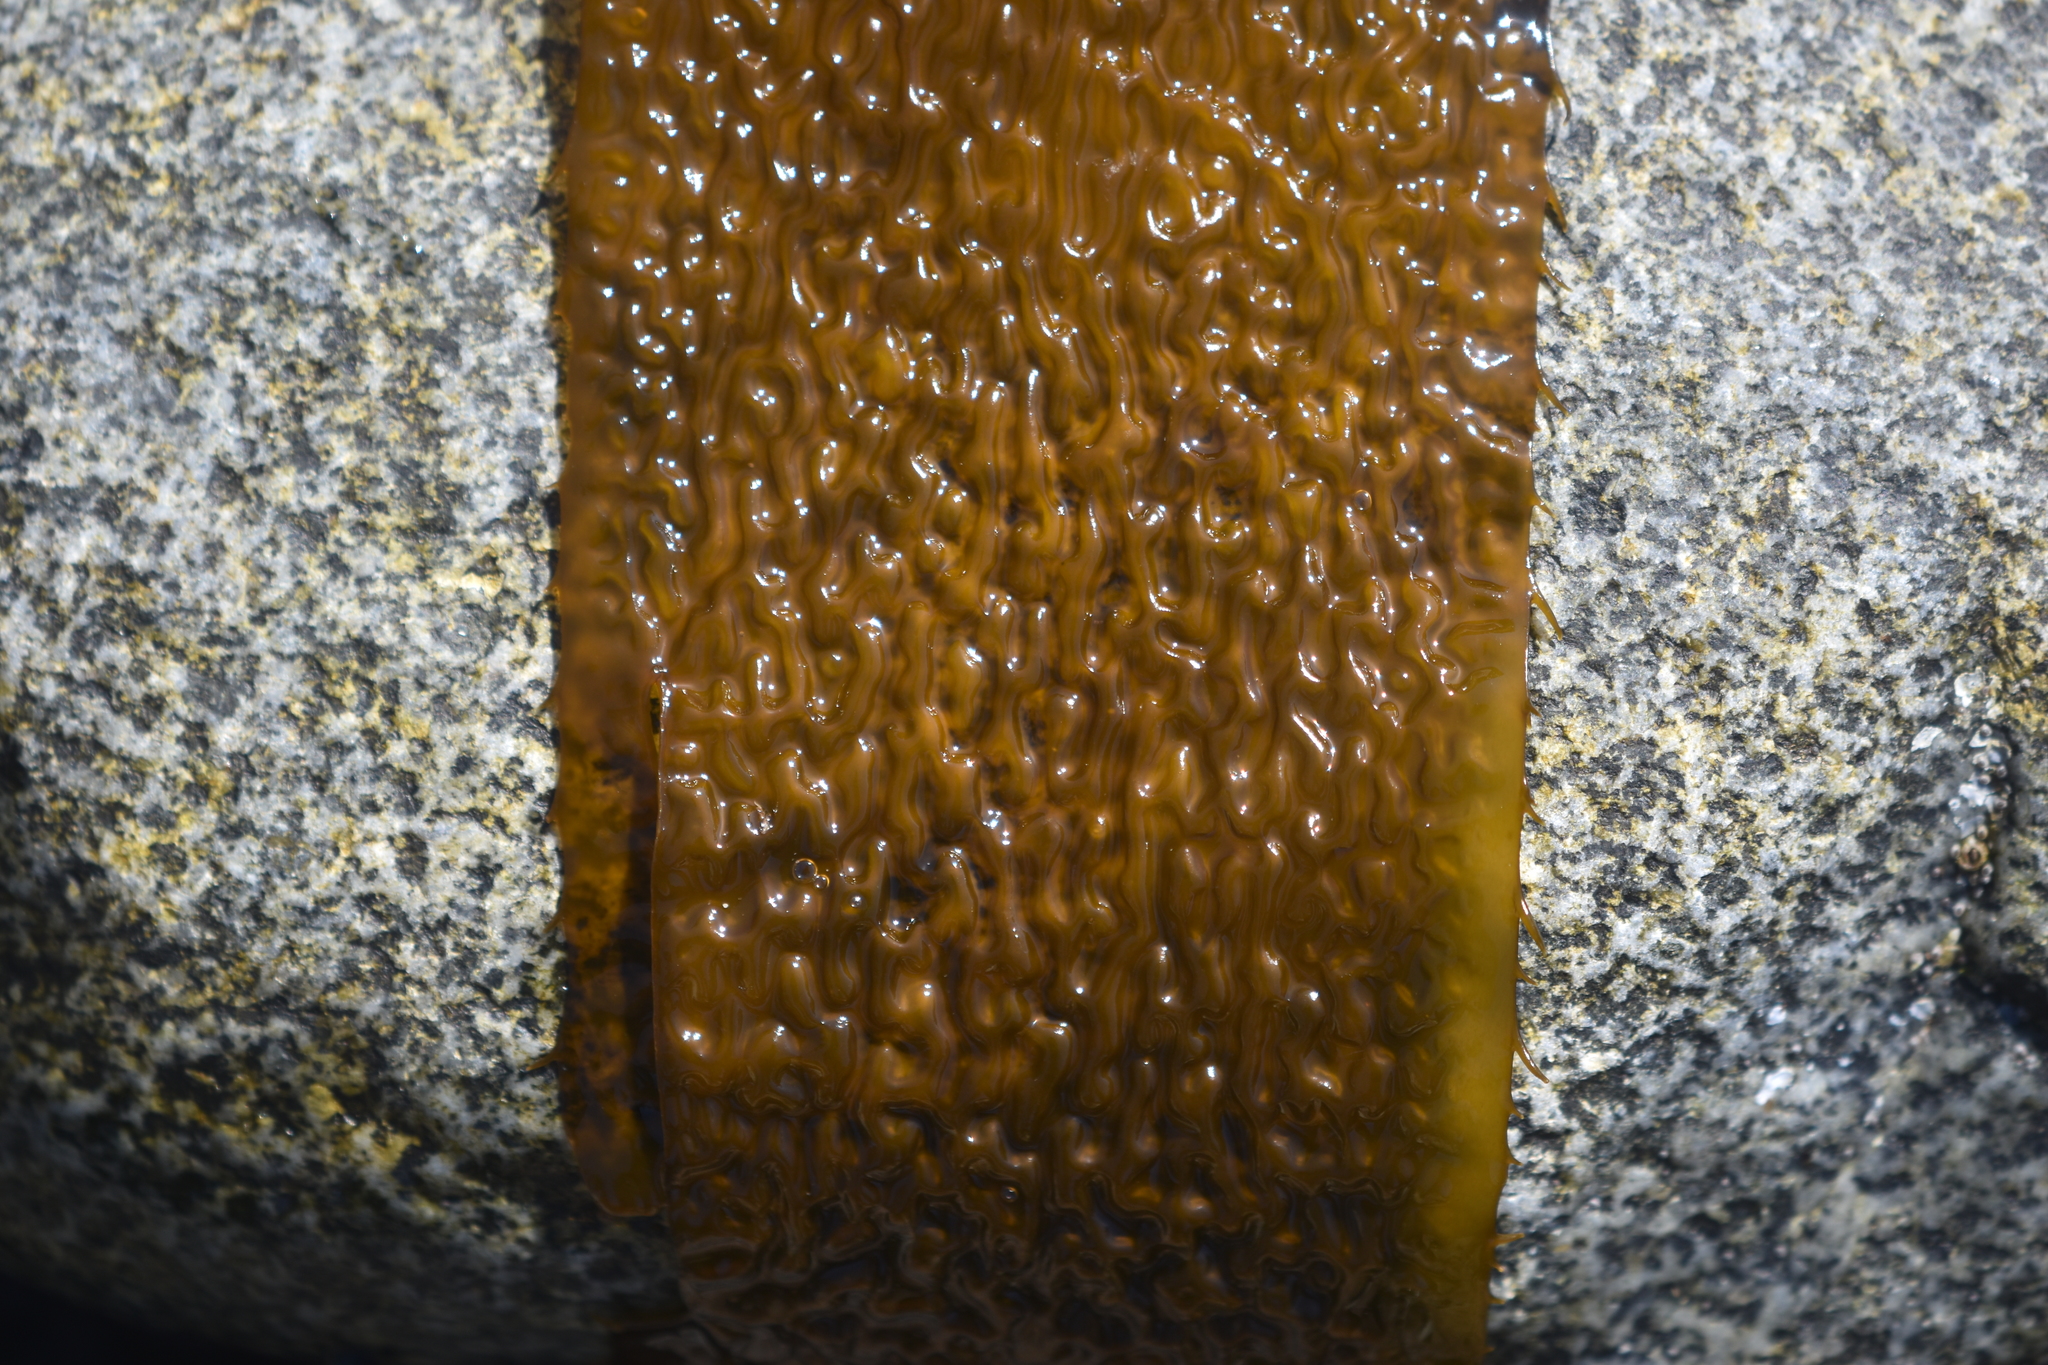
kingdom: Chromista
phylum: Ochrophyta
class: Phaeophyceae
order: Laminariales
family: Laminariaceae
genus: Macrocystis
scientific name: Macrocystis pyrifera
